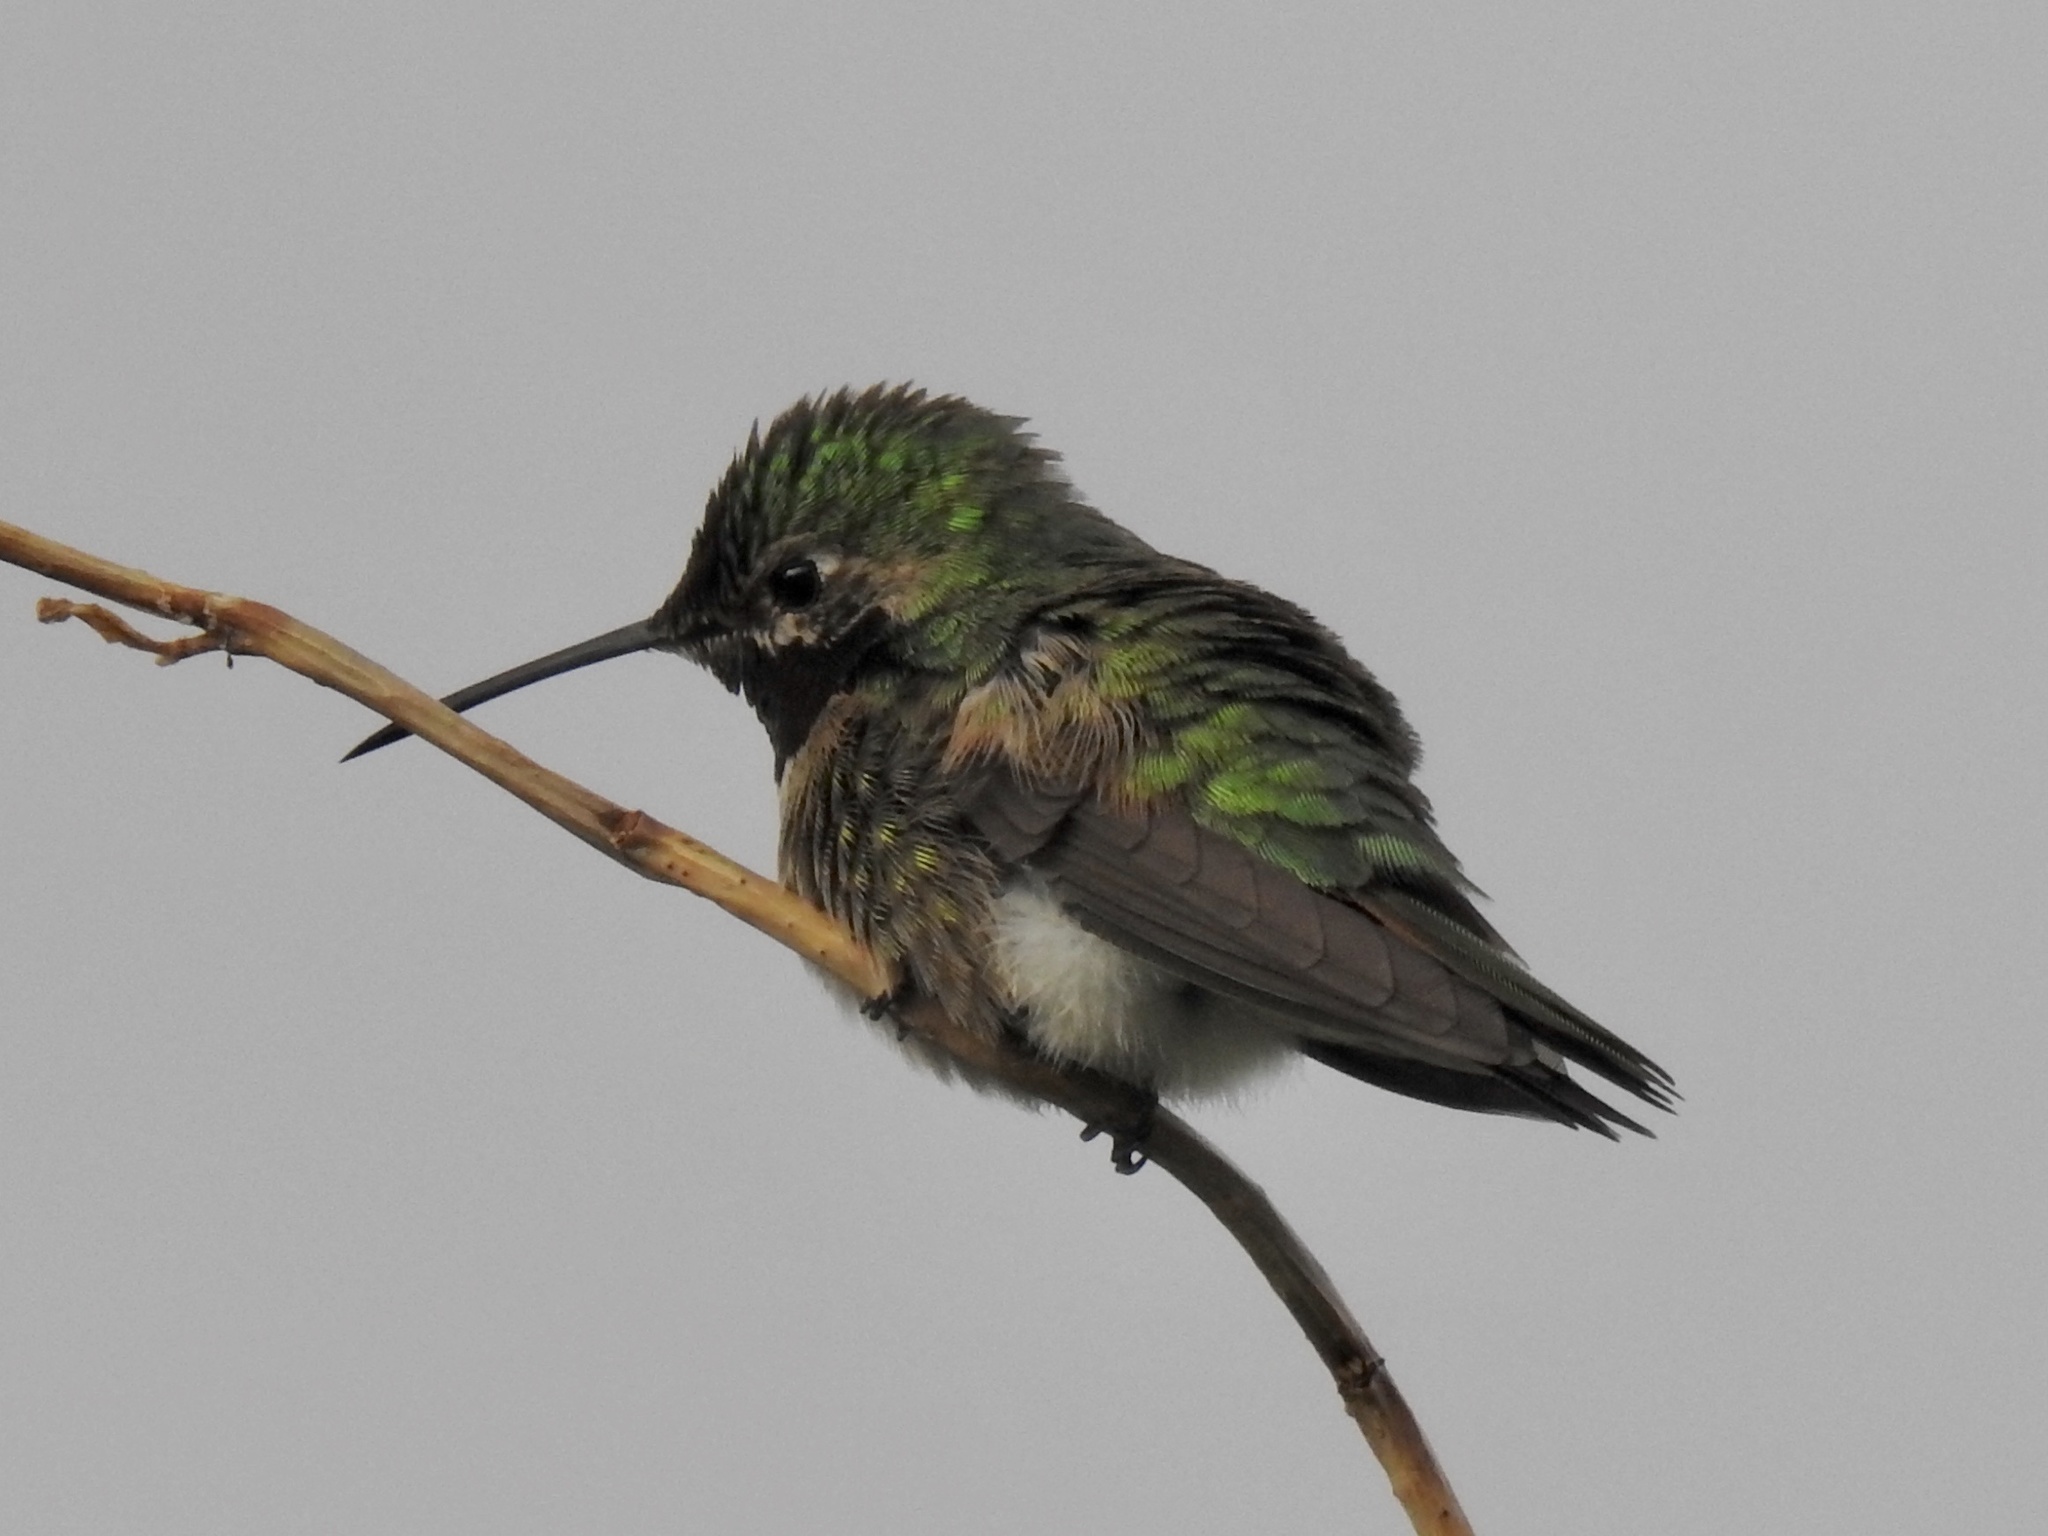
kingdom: Animalia
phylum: Chordata
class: Aves
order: Apodiformes
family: Trochilidae
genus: Selasphorus
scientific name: Selasphorus platycercus
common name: Broad-tailed hummingbird
